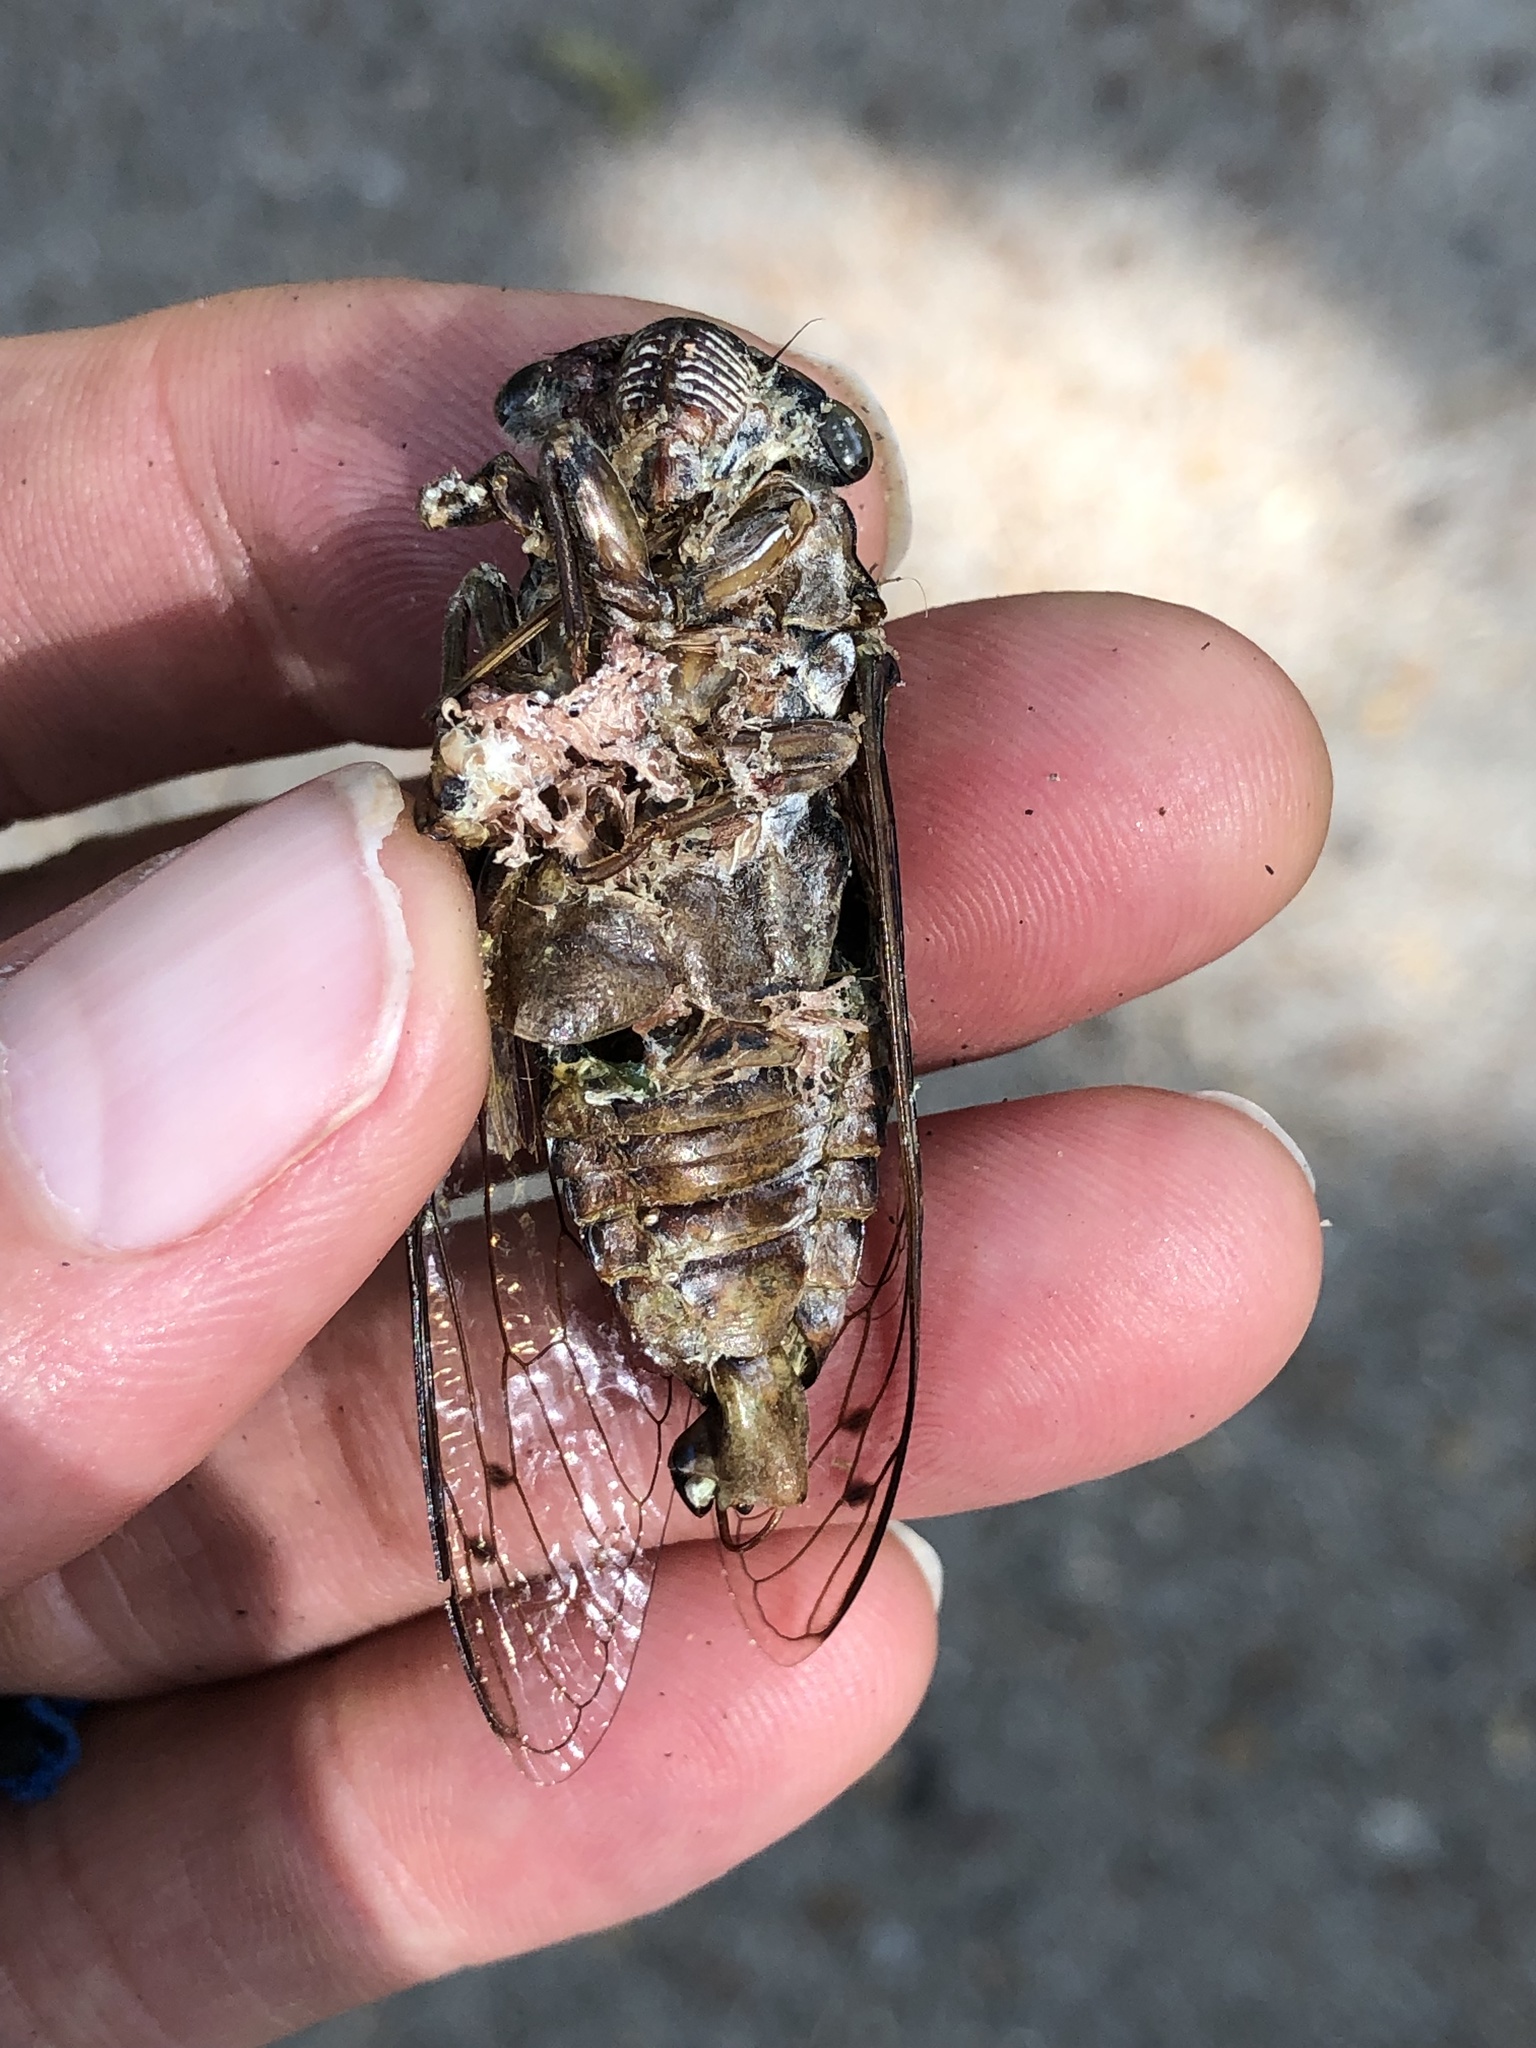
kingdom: Animalia
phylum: Arthropoda
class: Insecta
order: Hemiptera
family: Cicadidae
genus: Megatibicen
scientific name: Megatibicen figuratus
